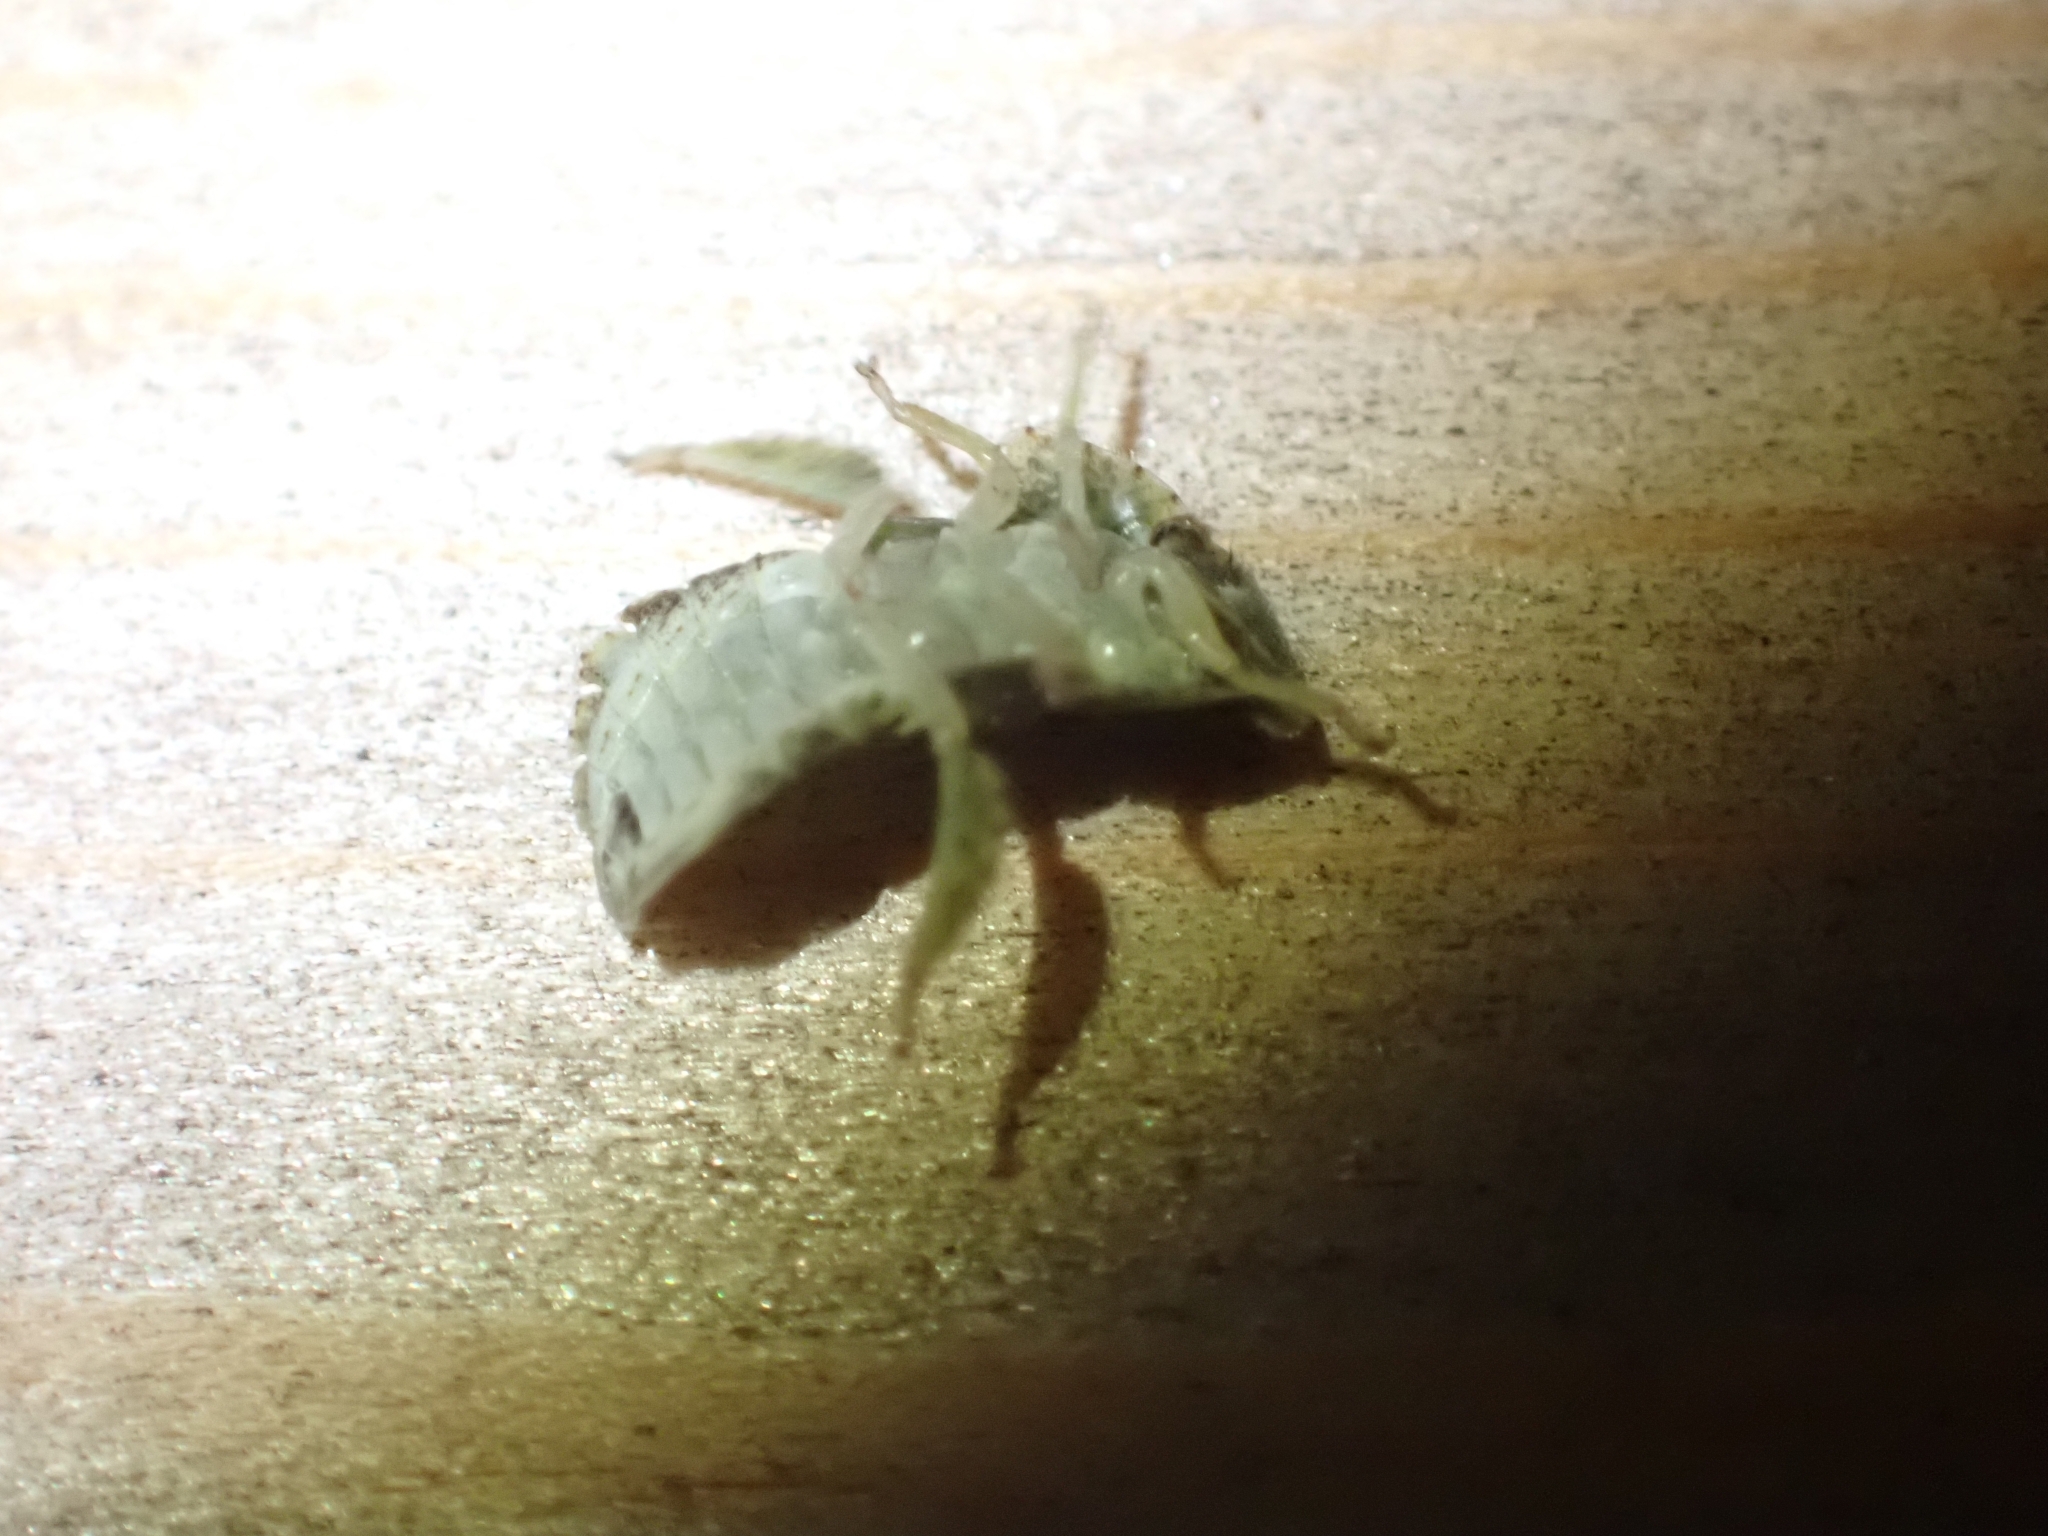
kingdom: Animalia
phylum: Arthropoda
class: Insecta
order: Hemiptera
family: Cicadellidae
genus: Ledra
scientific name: Ledra aurita
